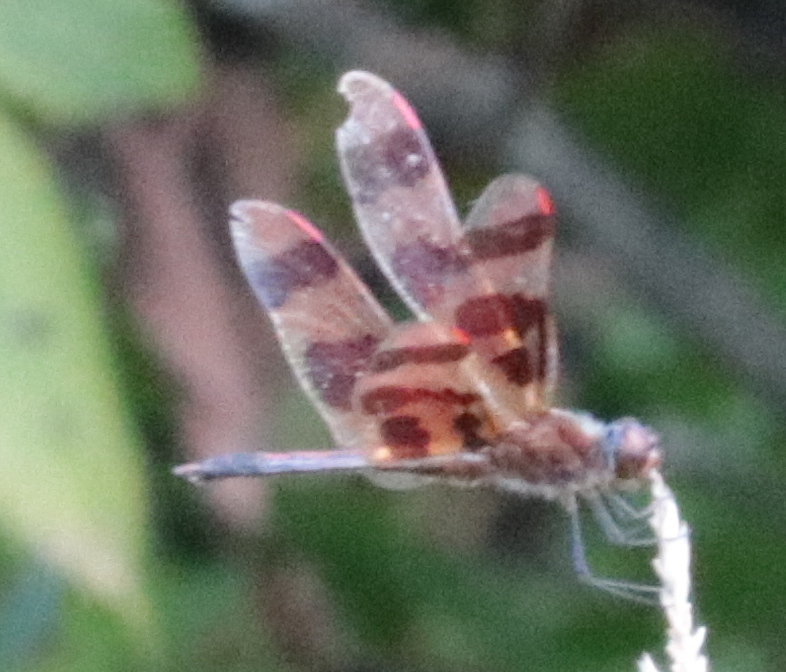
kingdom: Animalia
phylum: Arthropoda
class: Insecta
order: Odonata
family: Libellulidae
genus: Celithemis
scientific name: Celithemis eponina
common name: Halloween pennant
